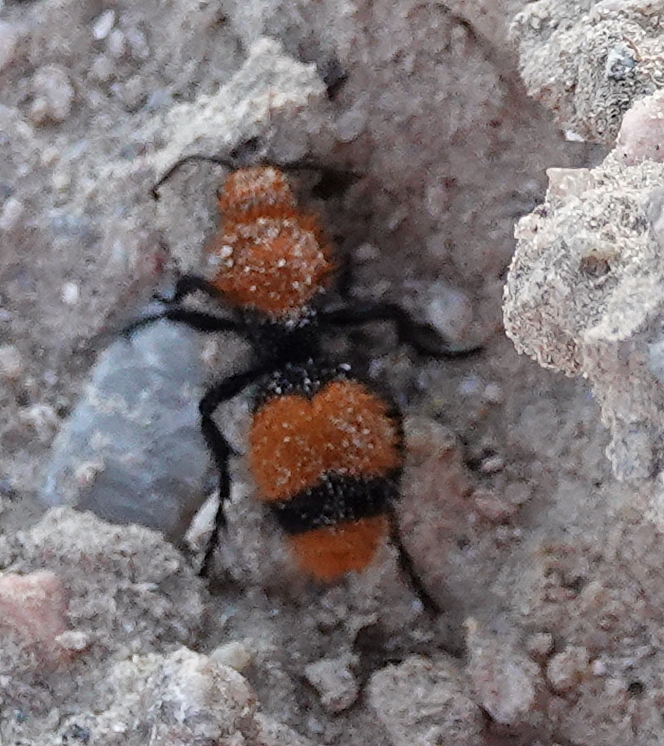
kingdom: Animalia
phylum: Arthropoda
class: Insecta
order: Hymenoptera
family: Mutillidae
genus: Dasymutilla
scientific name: Dasymutilla occidentalis
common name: Common eastern velvet ant
